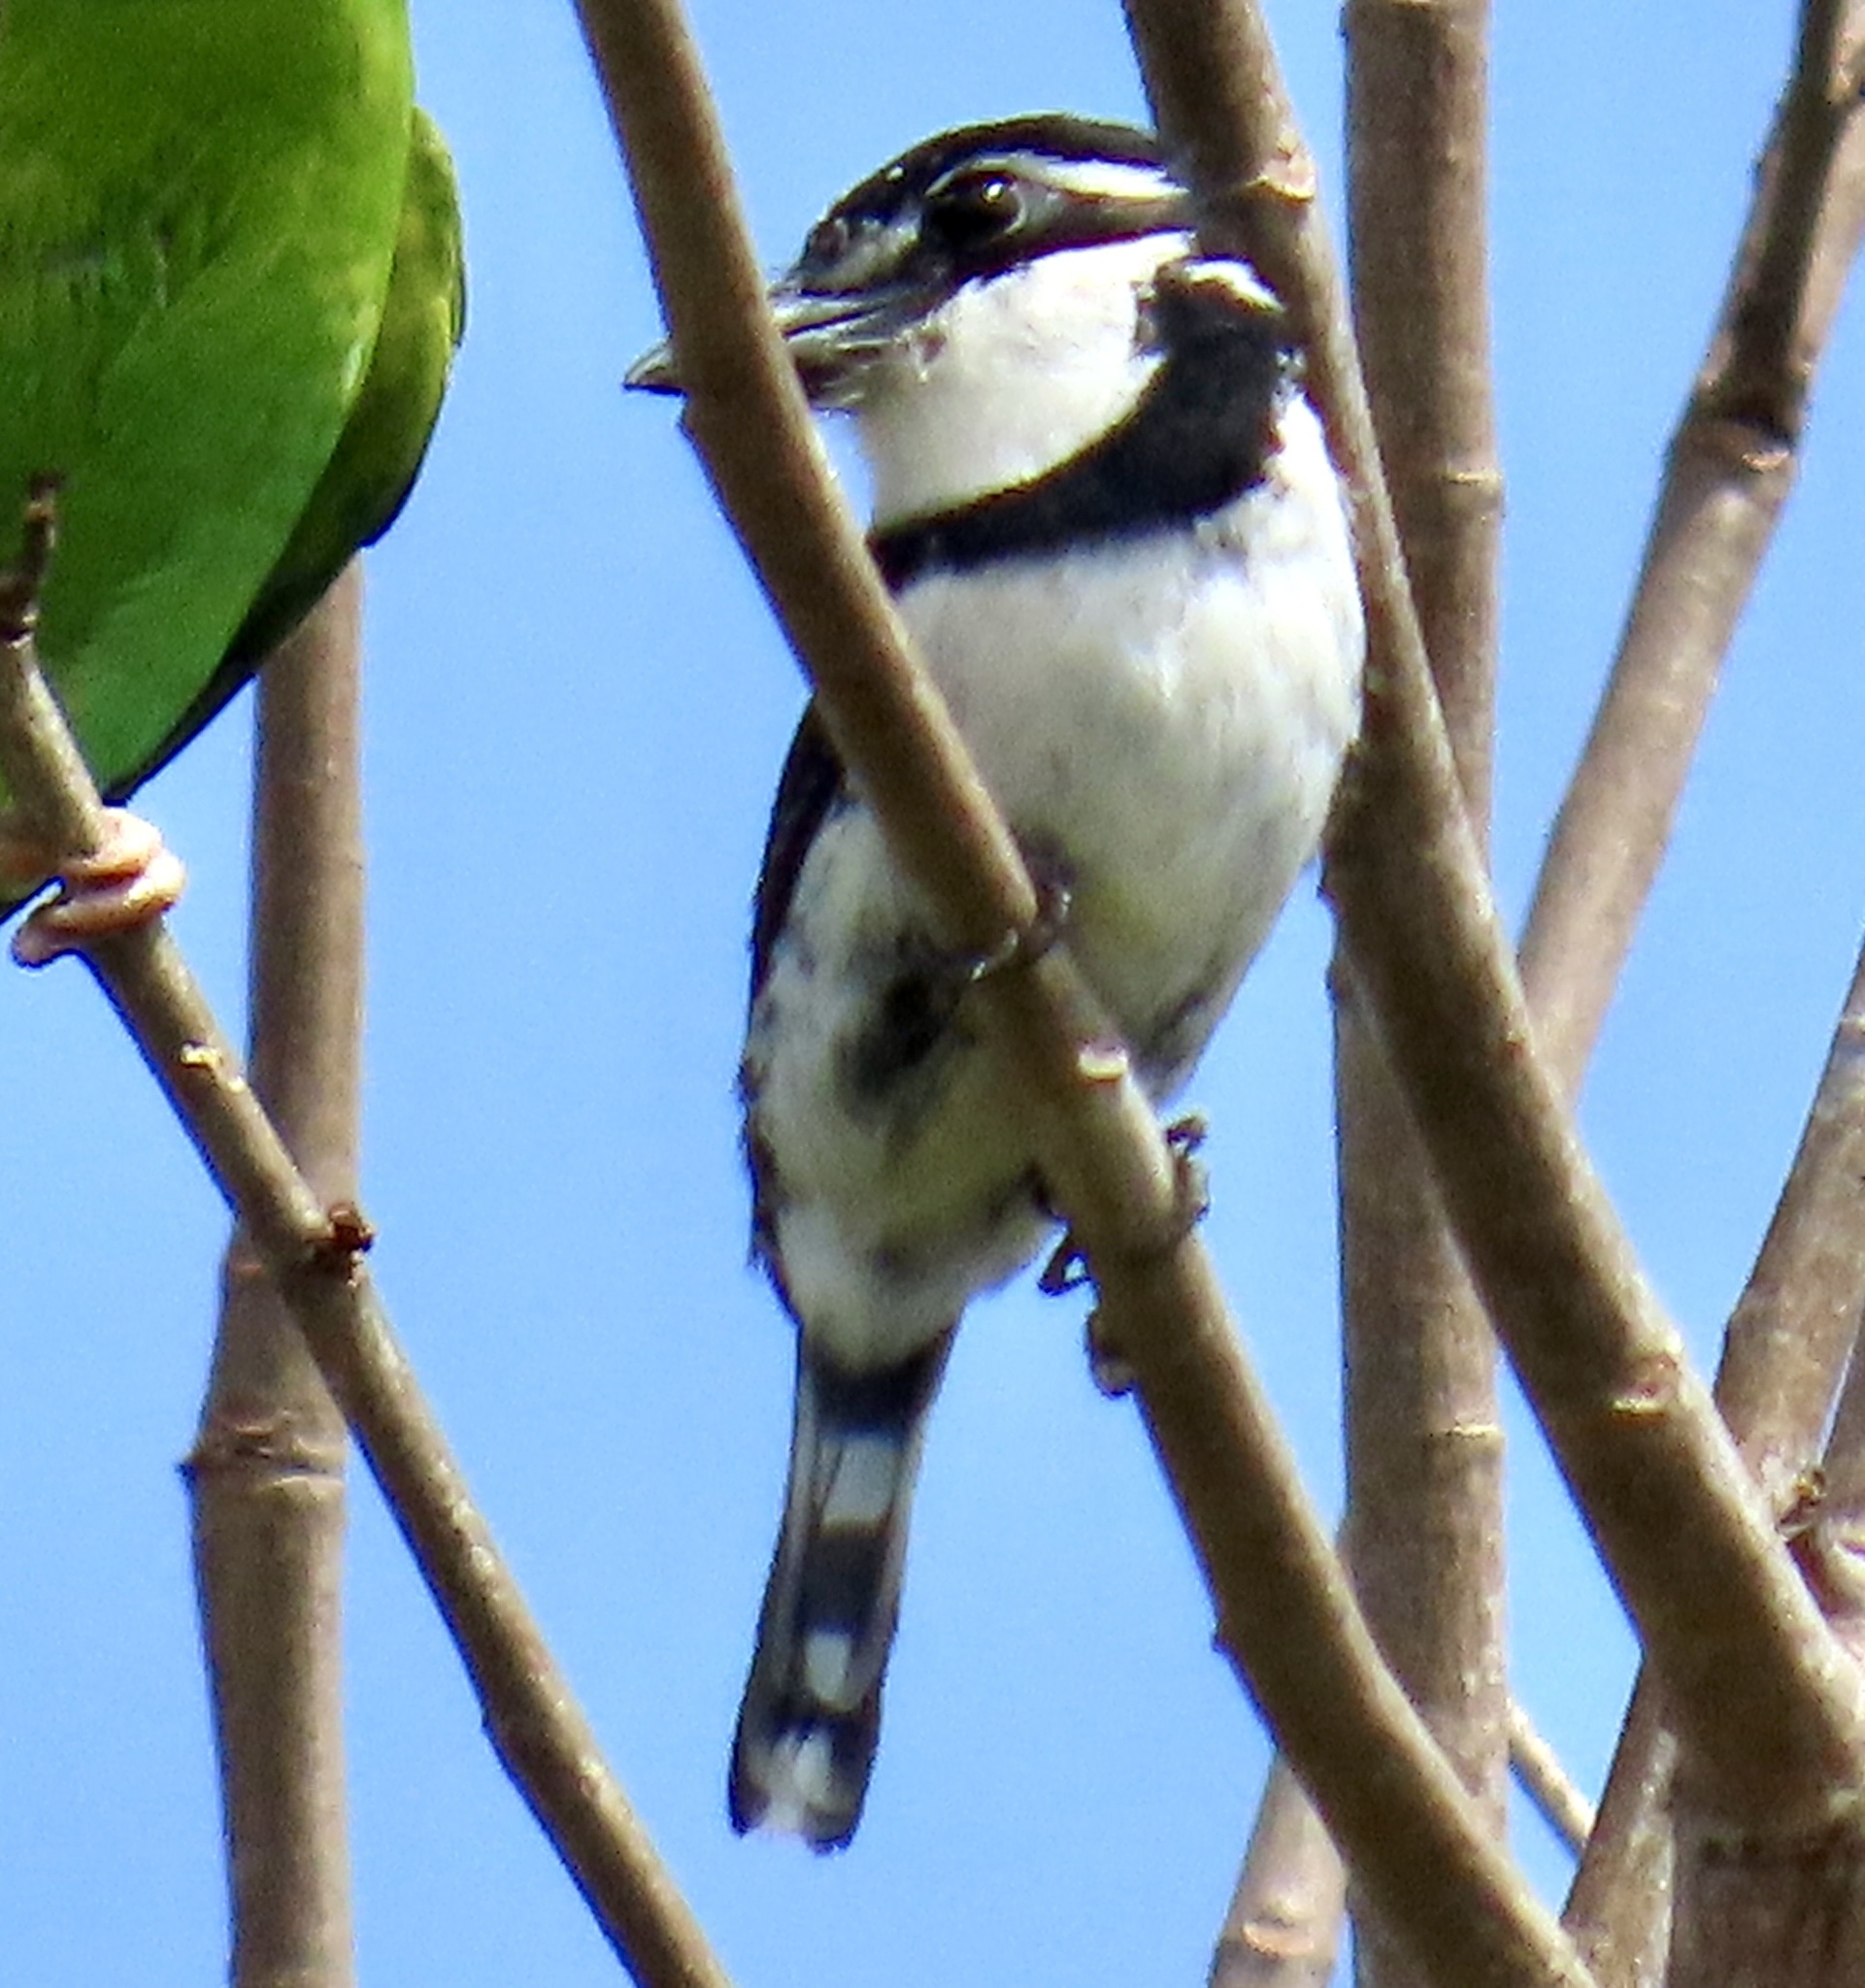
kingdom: Animalia
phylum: Chordata
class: Aves
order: Piciformes
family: Bucconidae
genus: Notharchus
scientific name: Notharchus tectus
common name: Pied puffbird
